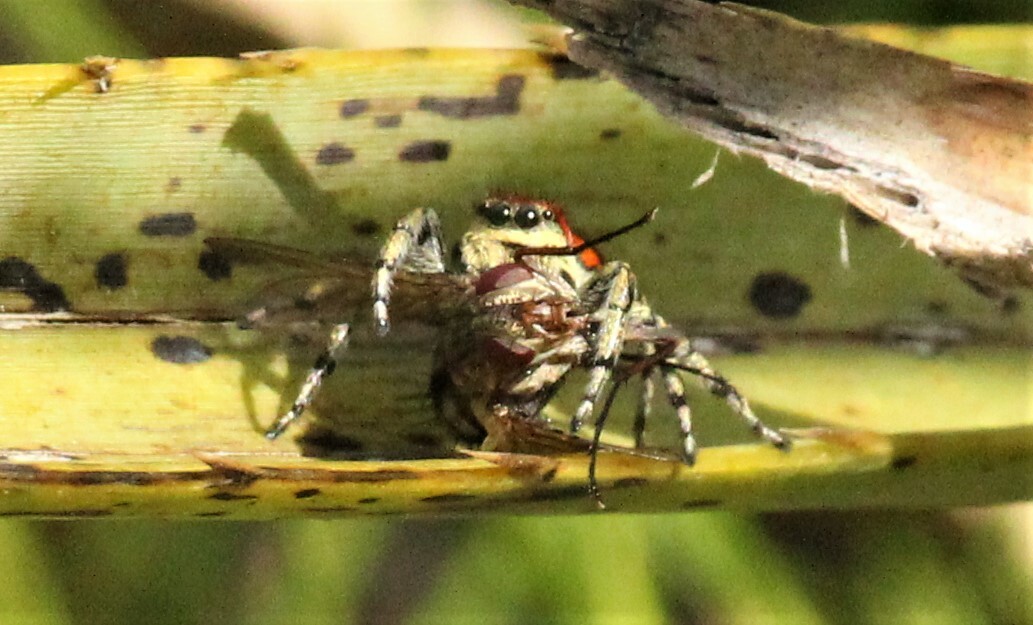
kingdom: Animalia
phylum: Arthropoda
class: Arachnida
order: Araneae
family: Salticidae
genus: Phiale
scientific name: Phiale roburifoliata
